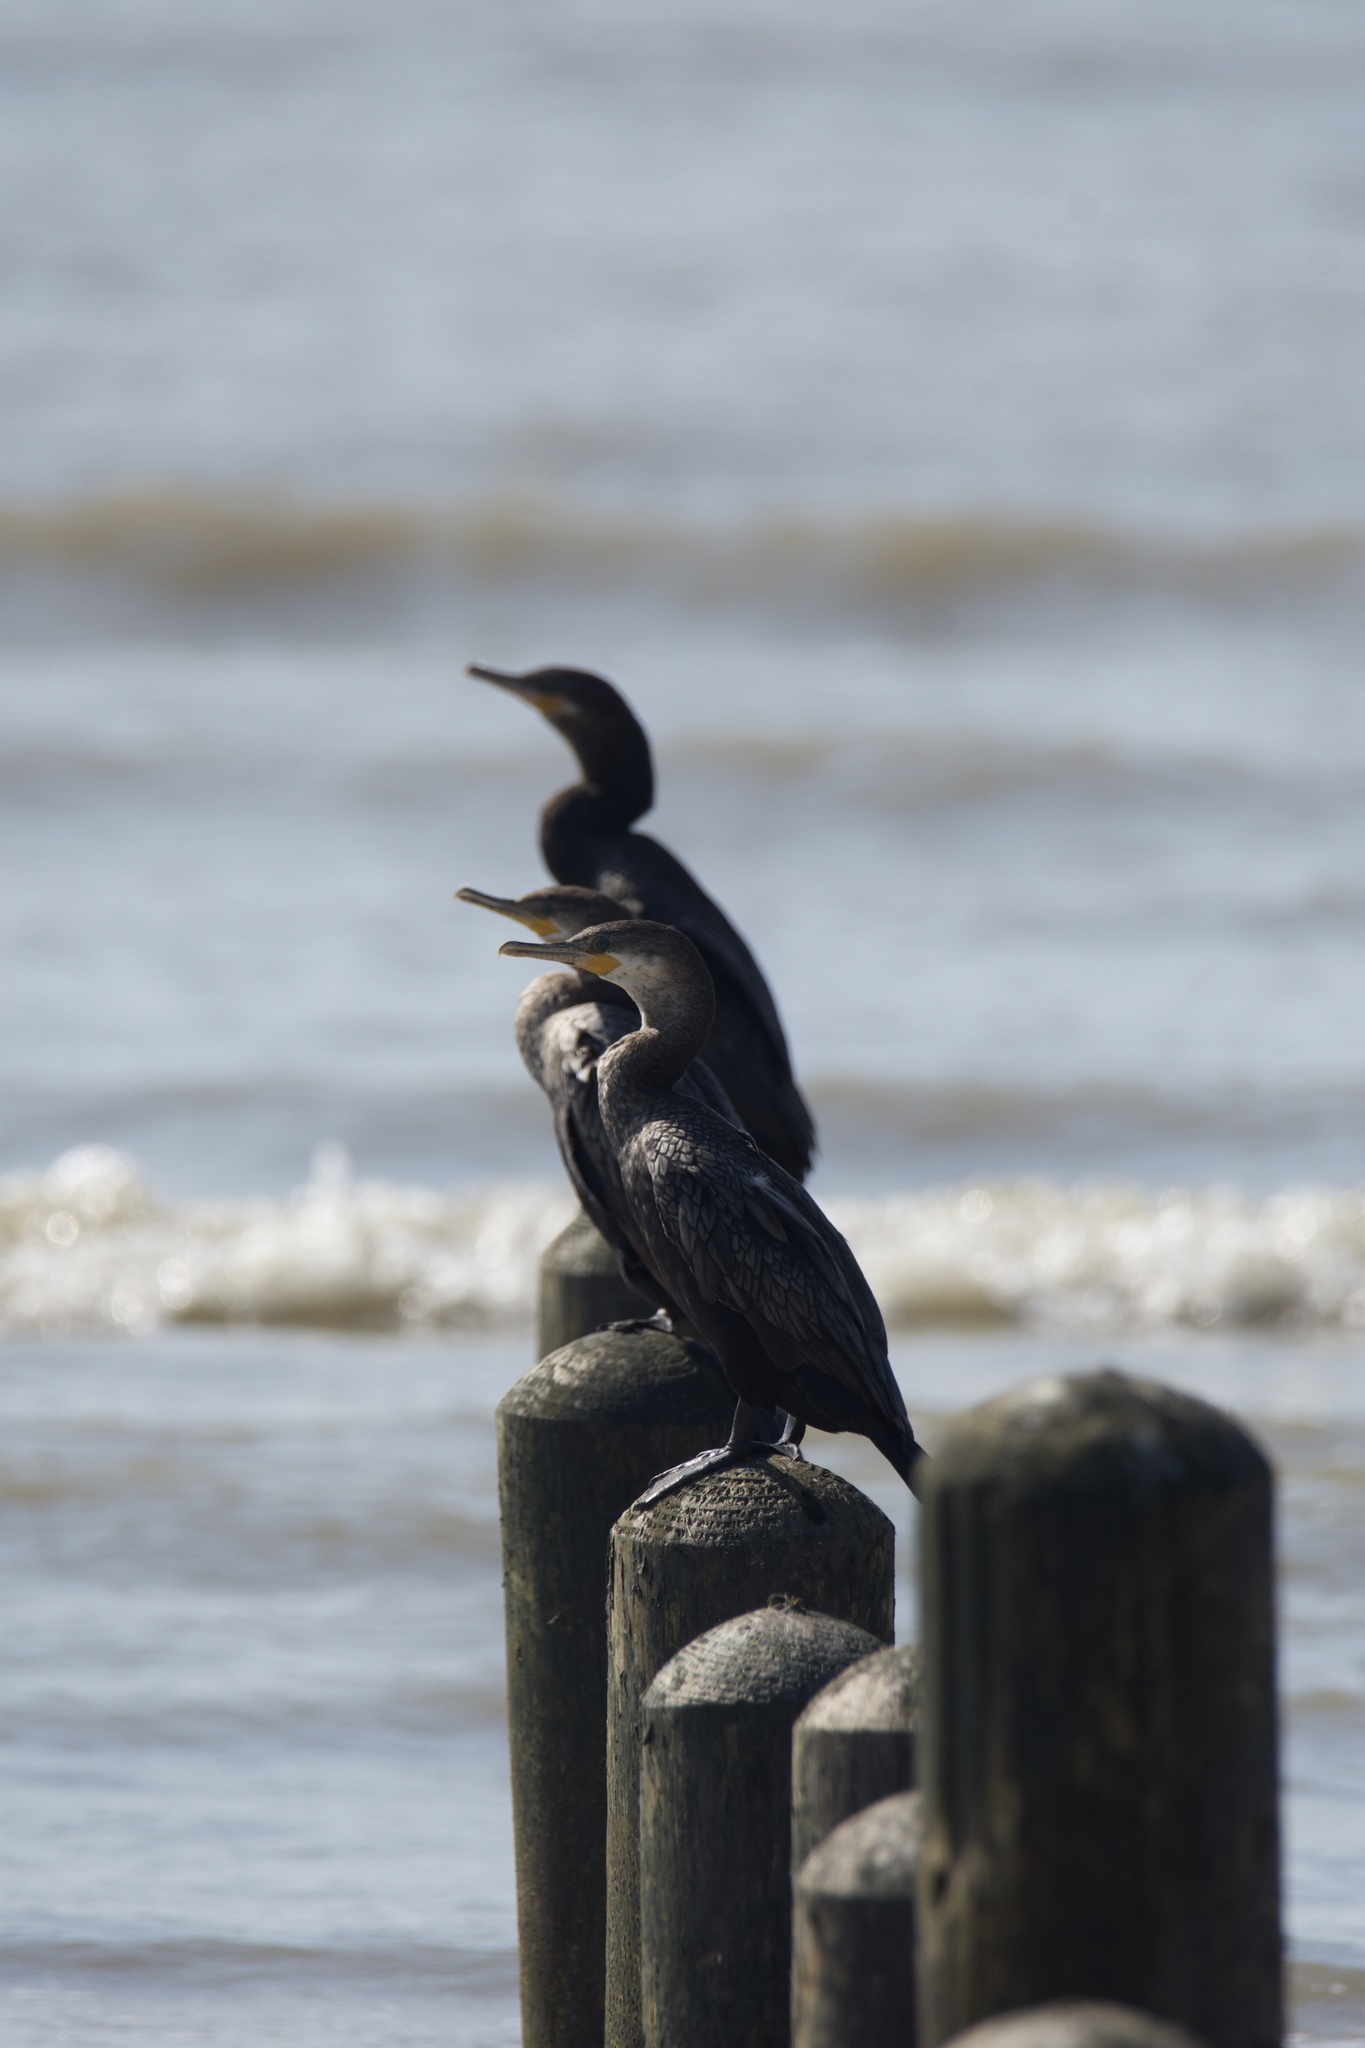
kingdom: Animalia
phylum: Chordata
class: Aves
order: Suliformes
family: Phalacrocoracidae
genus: Phalacrocorax
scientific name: Phalacrocorax brasilianus
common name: Neotropic cormorant
